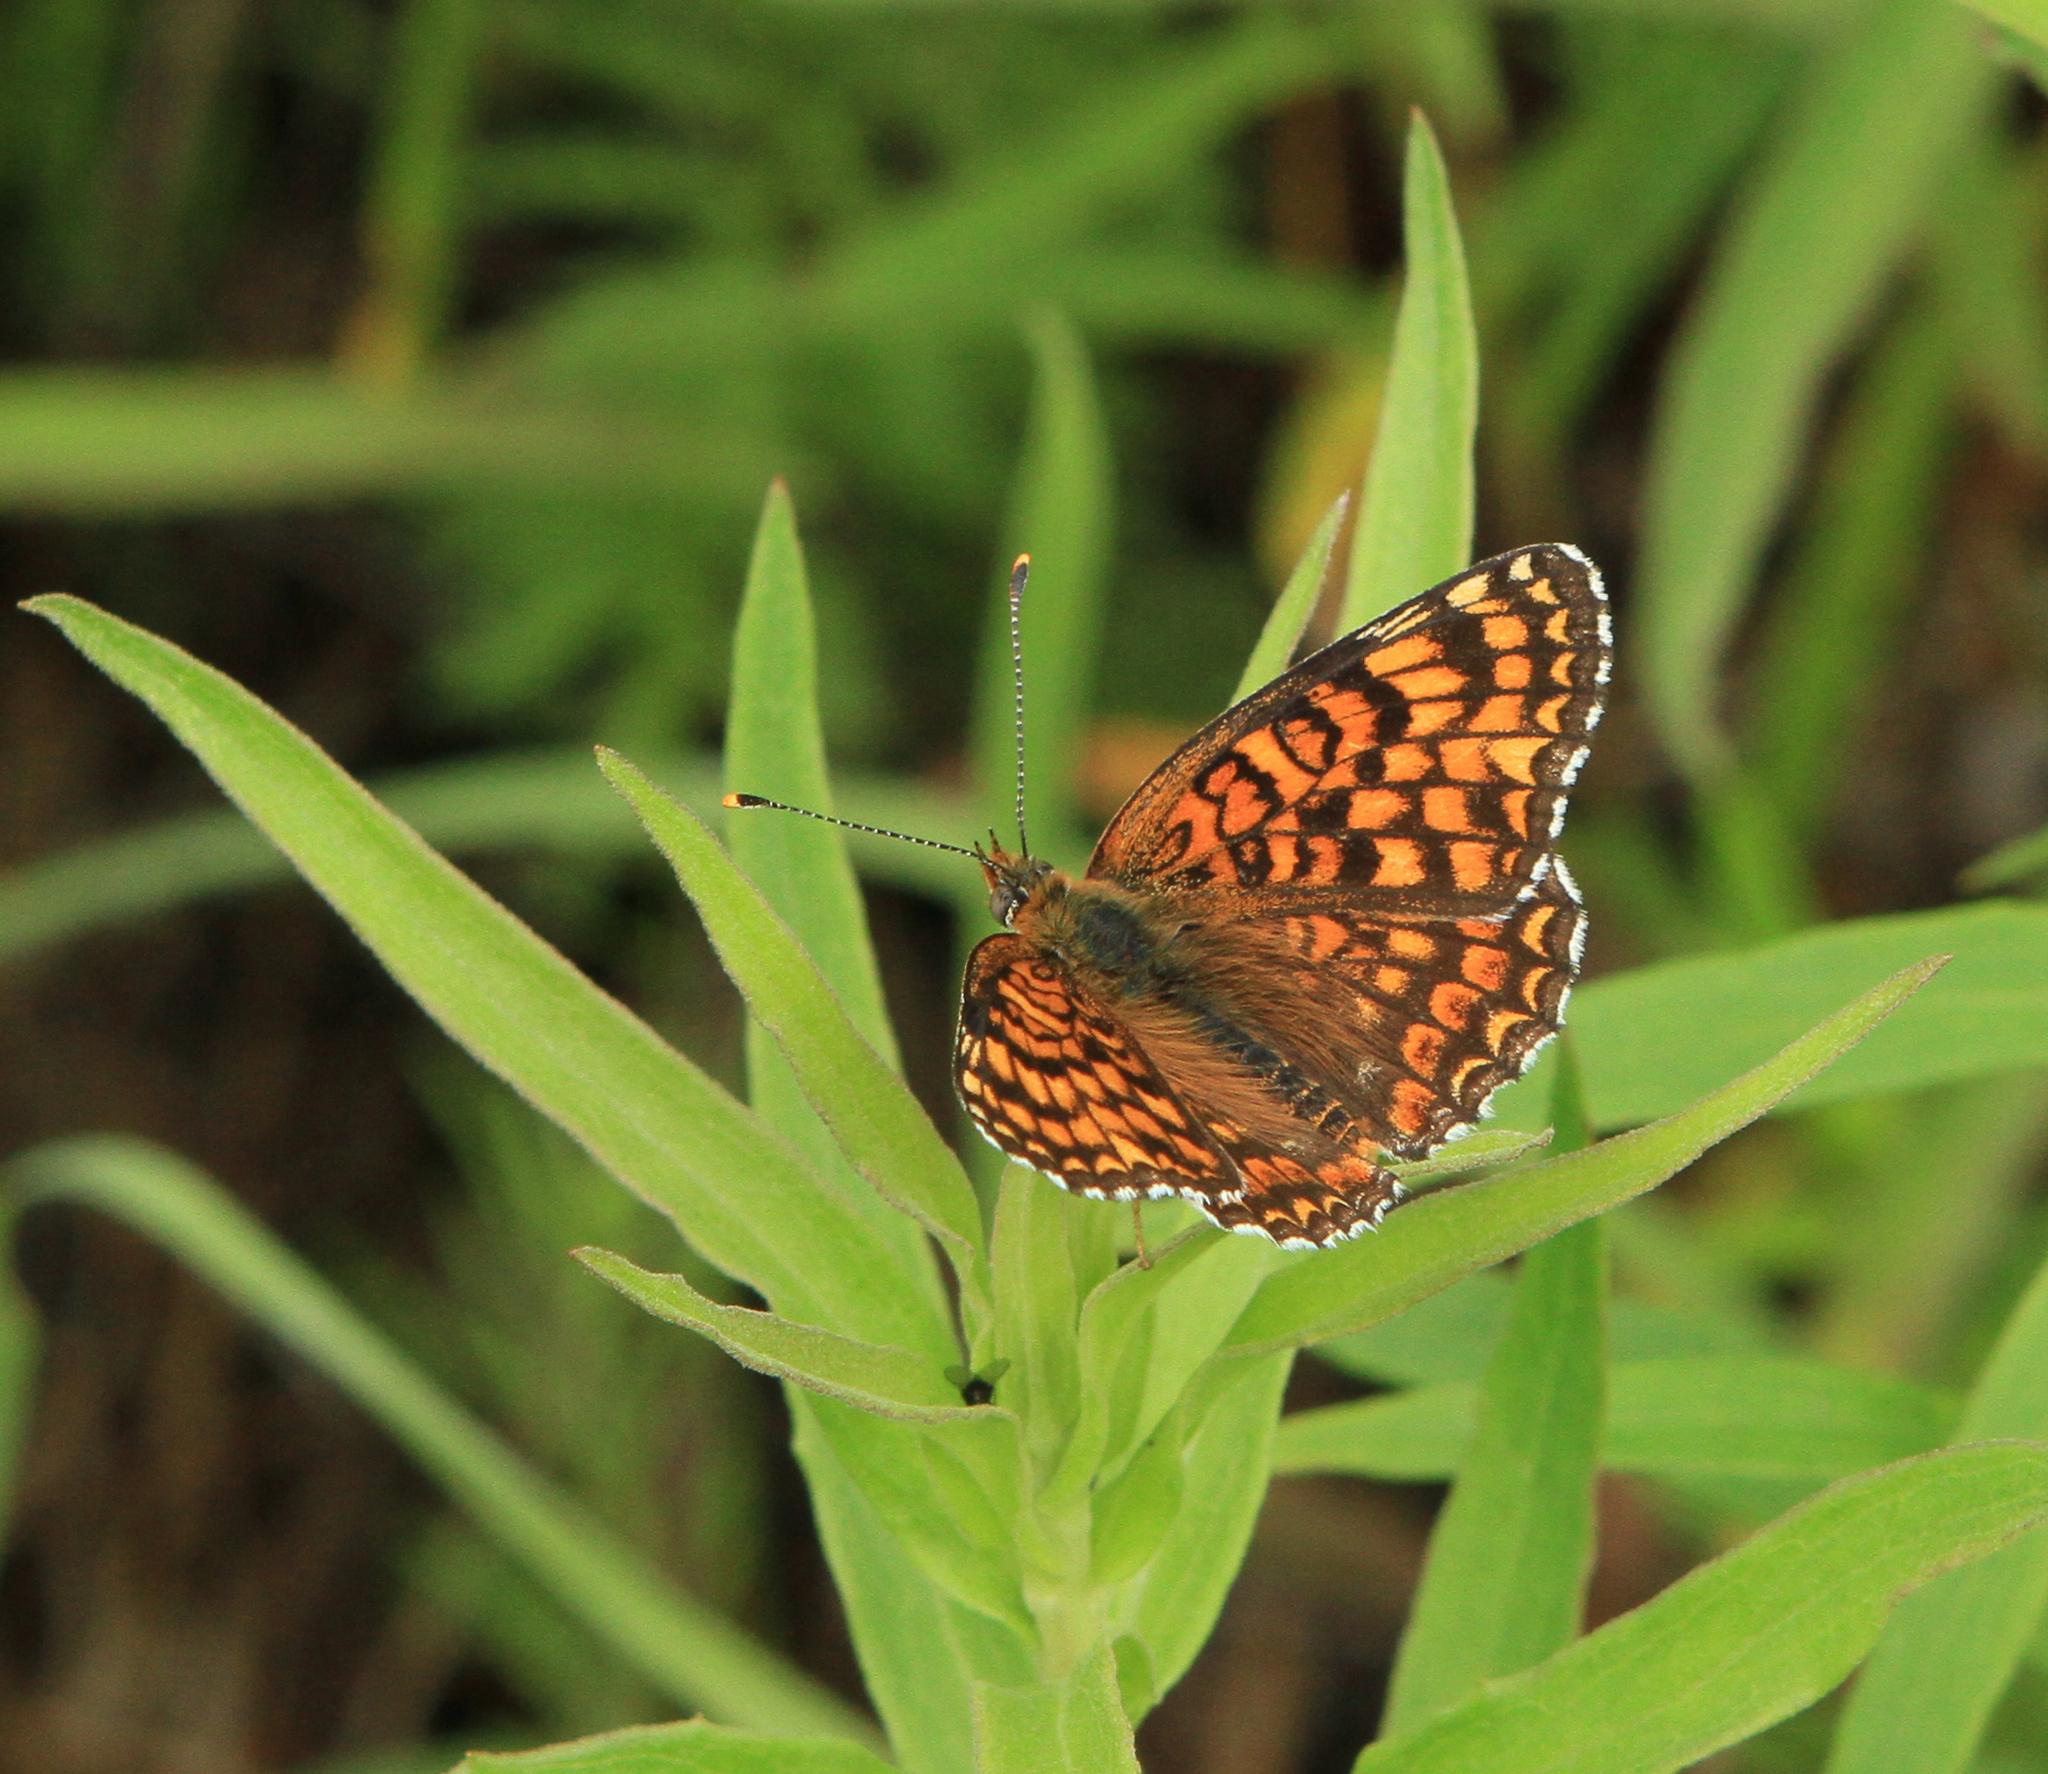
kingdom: Animalia
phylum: Arthropoda
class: Insecta
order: Lepidoptera
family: Nymphalidae
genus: Melitaea
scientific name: Melitaea phoebe
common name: Knapweed fritillary
